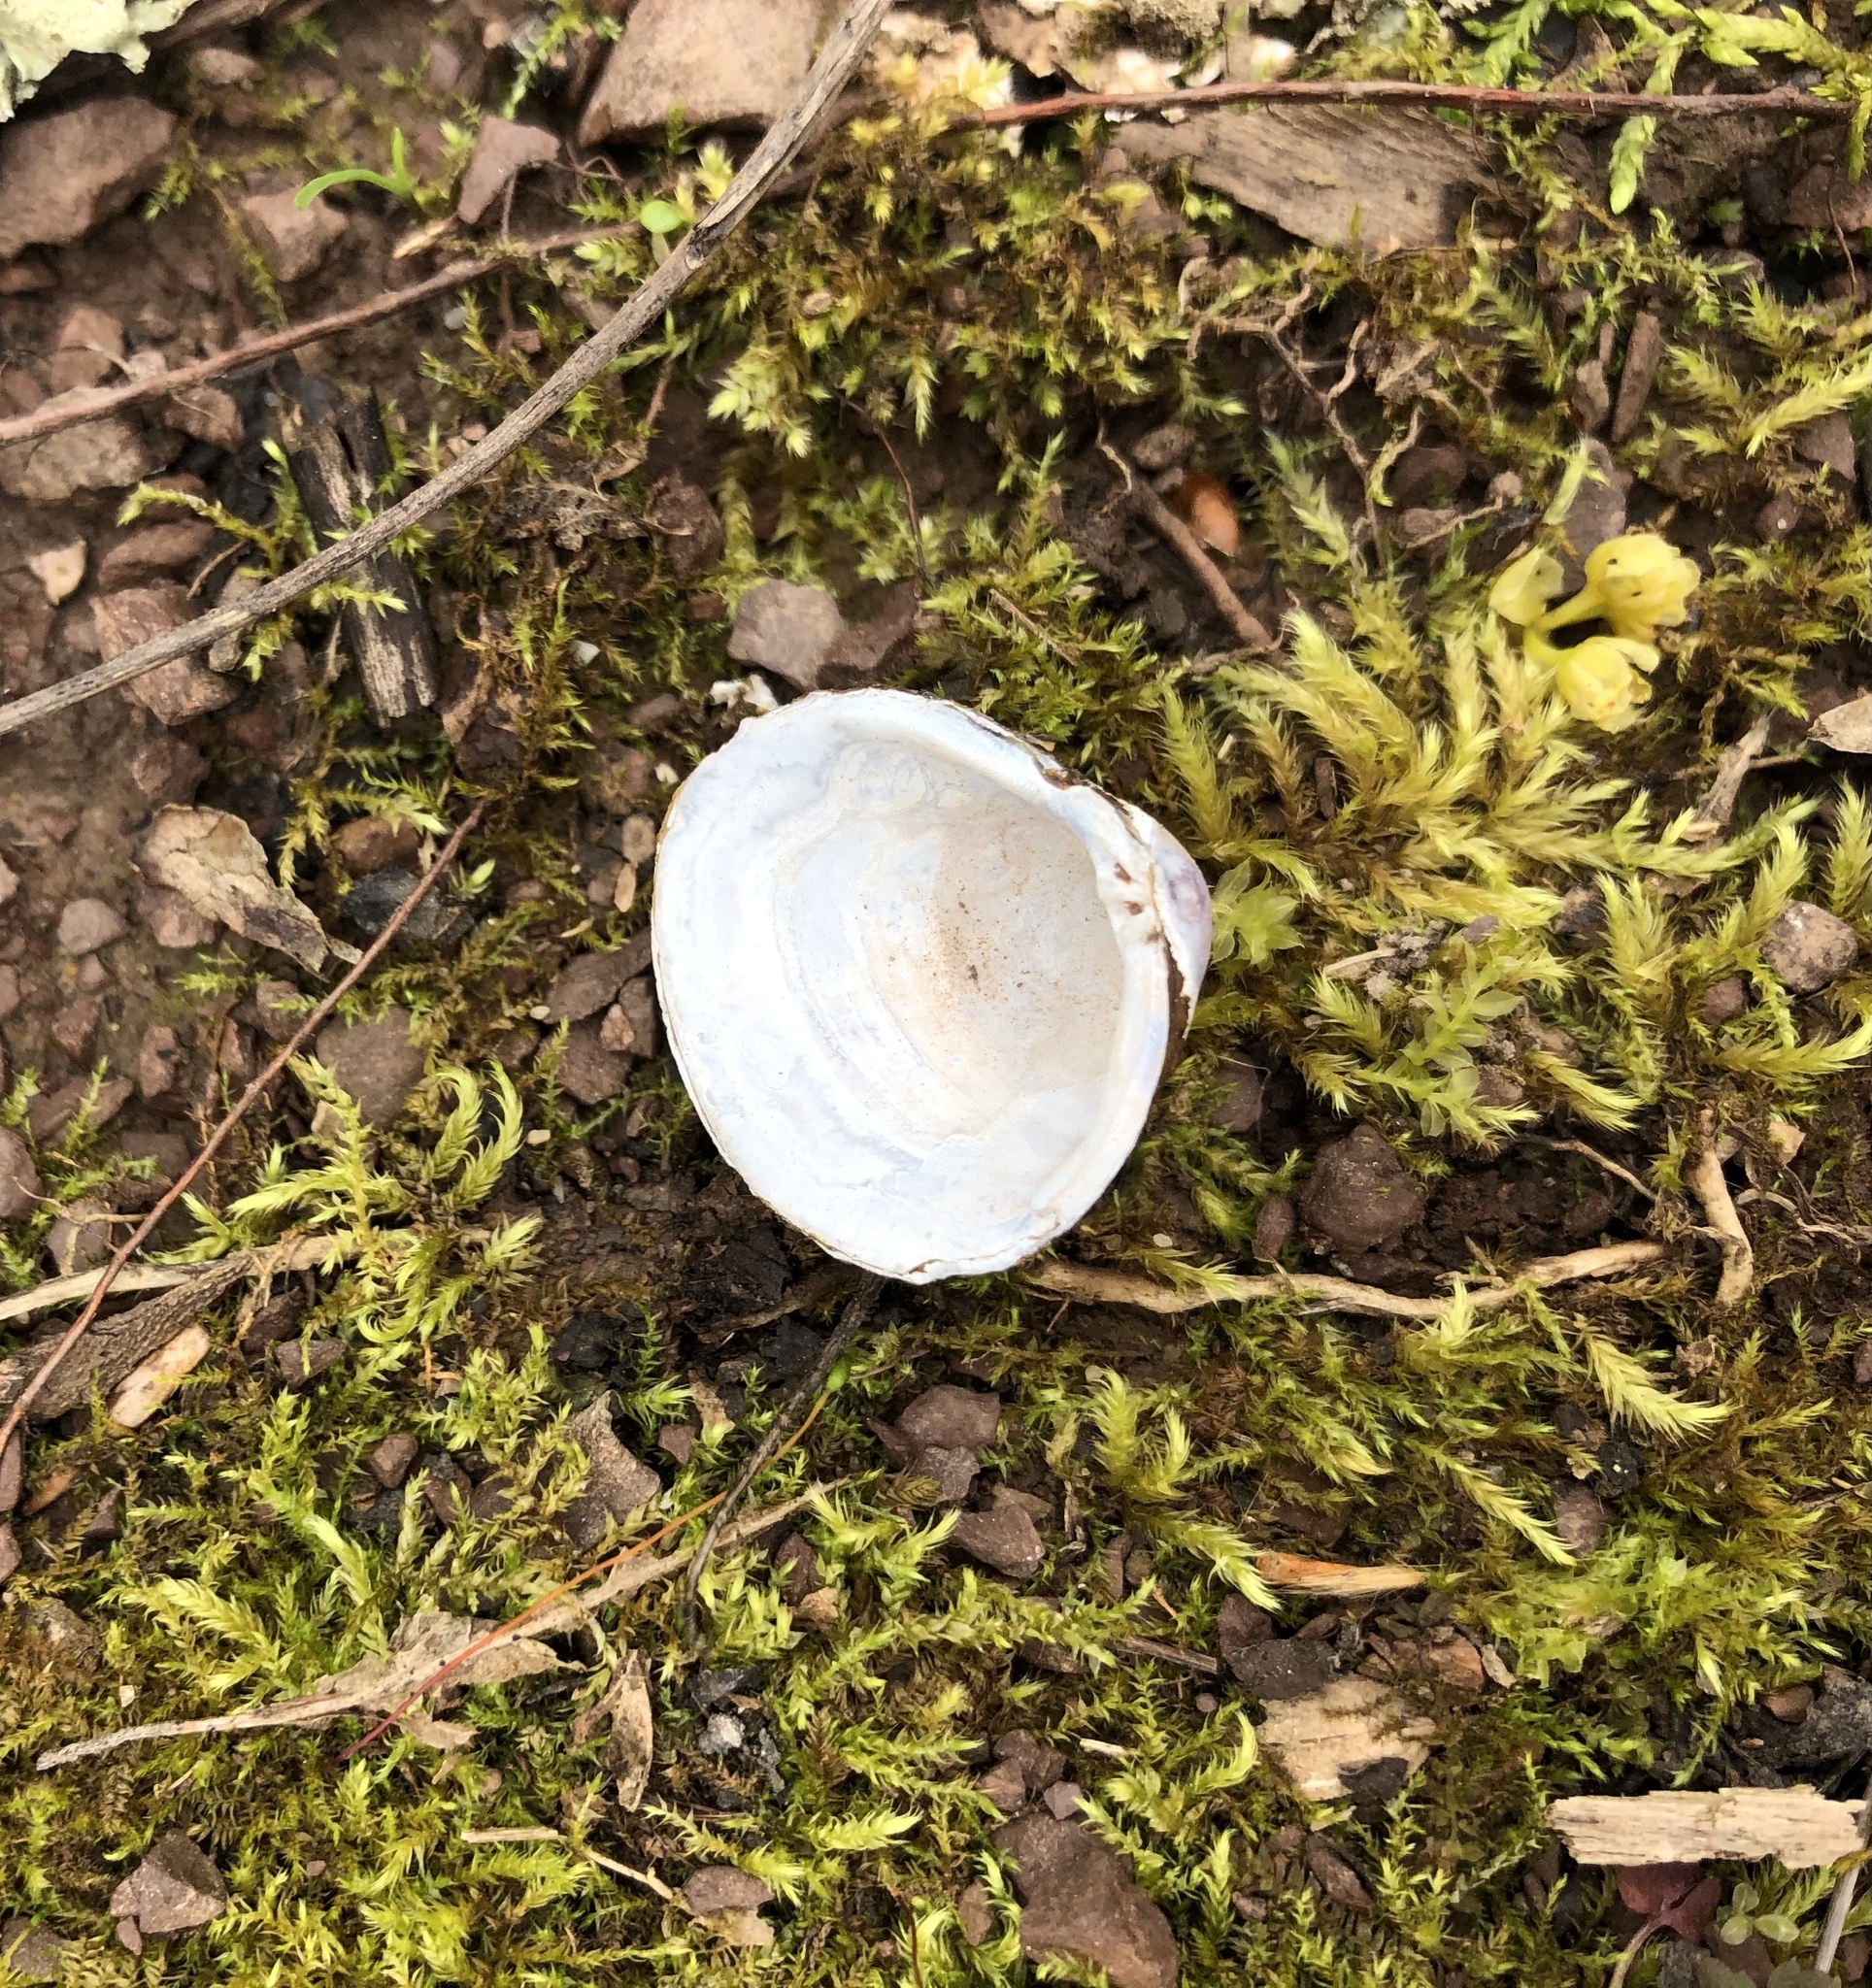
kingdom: Animalia
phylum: Mollusca
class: Bivalvia
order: Venerida
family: Cyrenidae
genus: Corbicula
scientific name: Corbicula fluminea
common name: Asian clam
